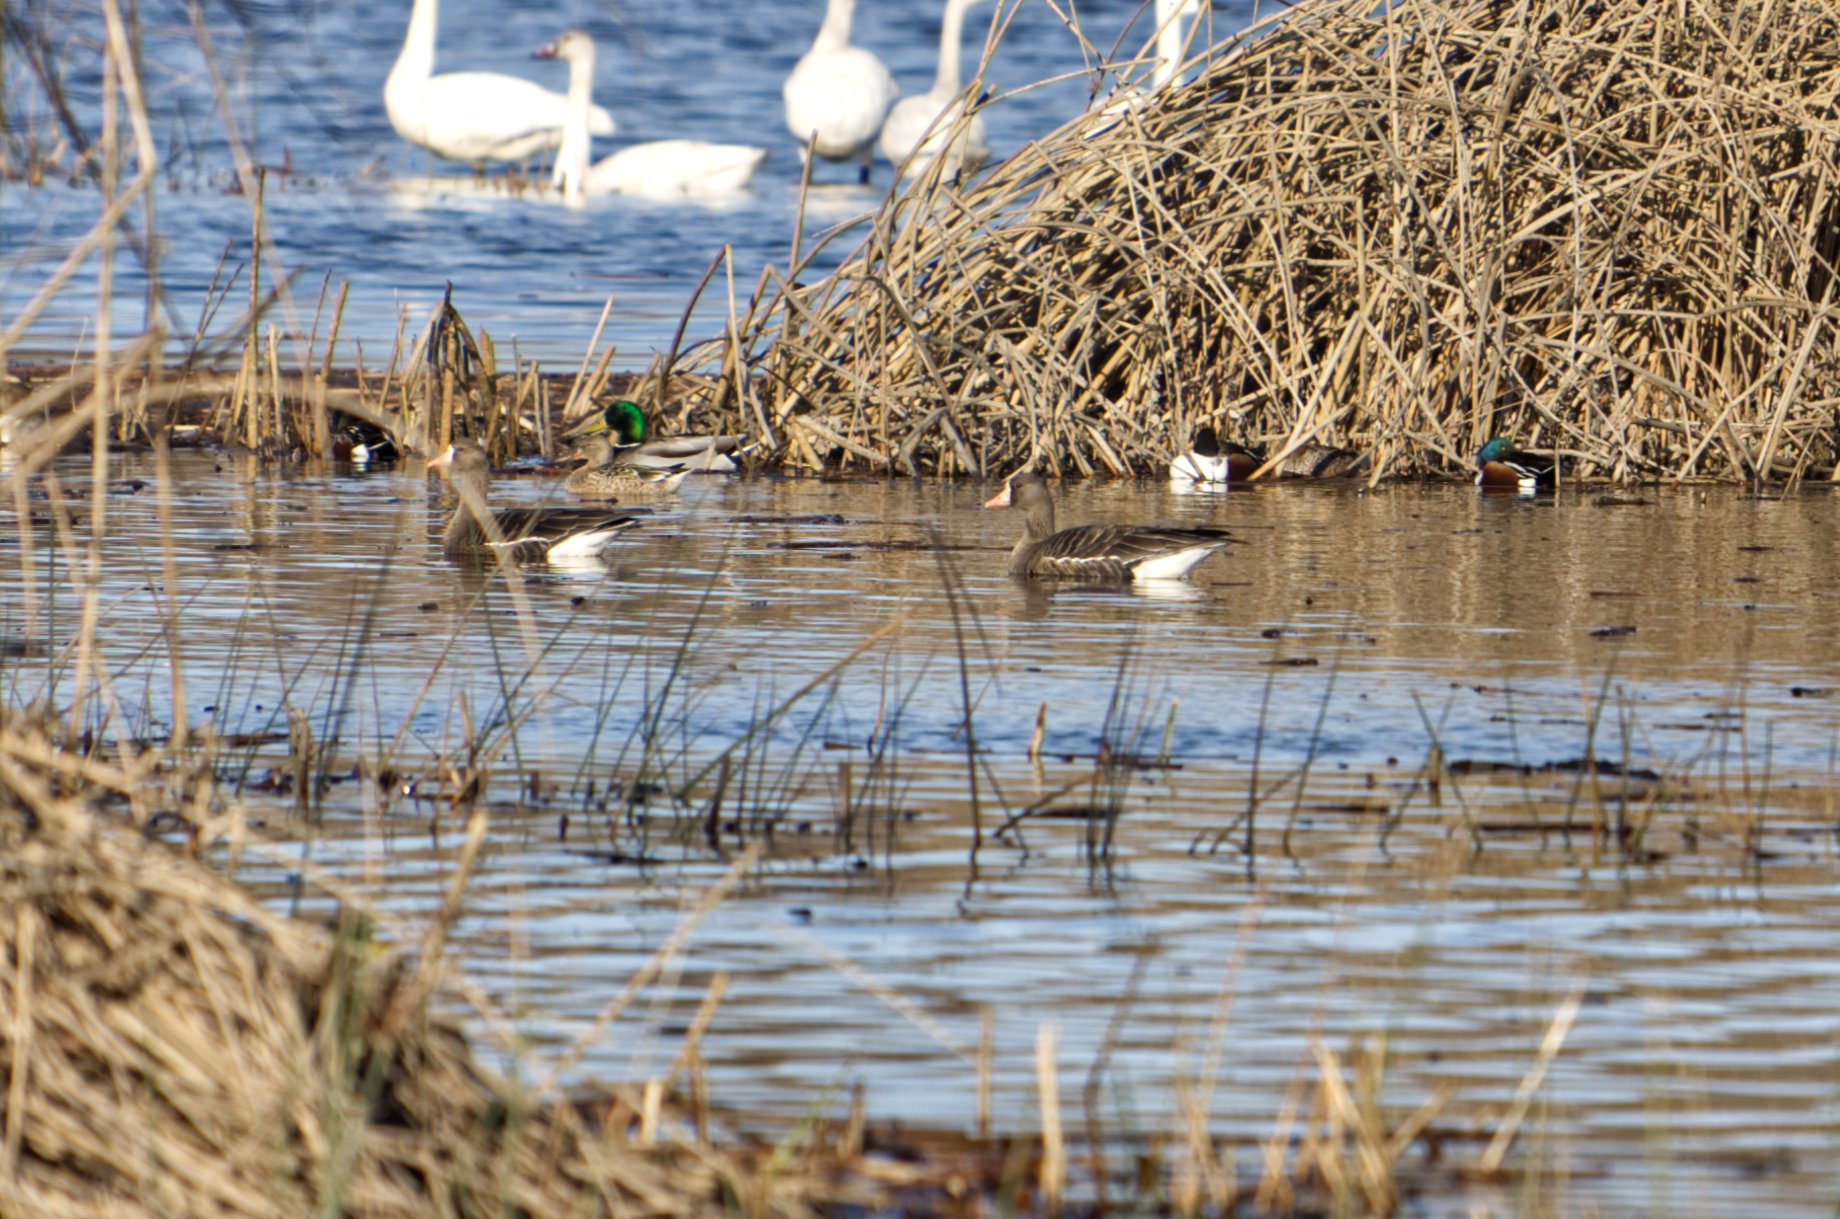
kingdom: Animalia
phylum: Chordata
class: Aves
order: Anseriformes
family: Anatidae
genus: Anser
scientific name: Anser albifrons
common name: Greater white-fronted goose
